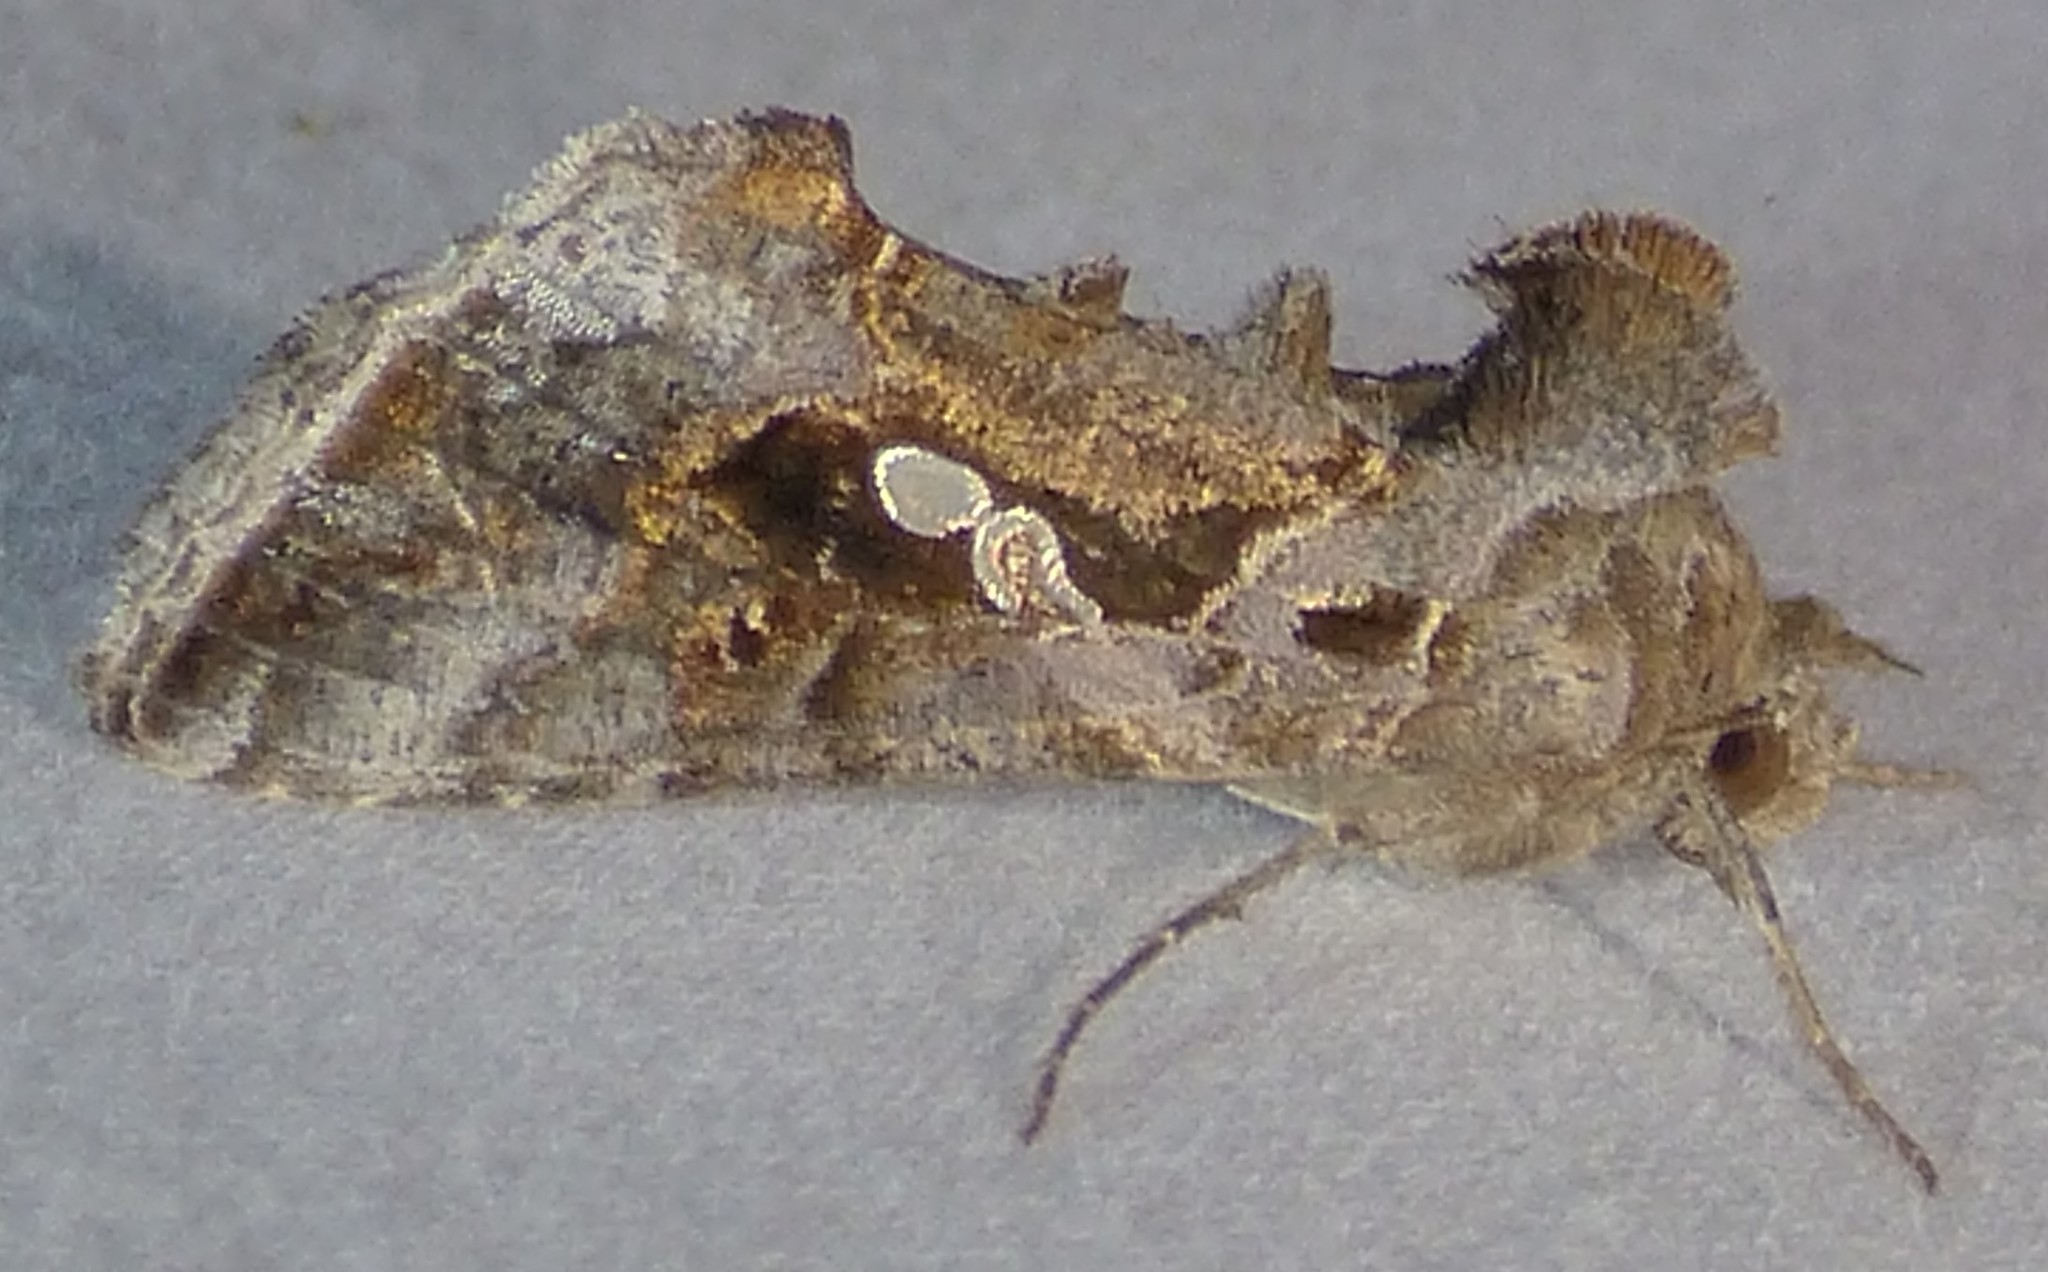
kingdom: Animalia
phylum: Arthropoda
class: Insecta
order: Lepidoptera
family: Noctuidae
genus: Chrysodeixis
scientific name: Chrysodeixis includens
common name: Cutworm moth
